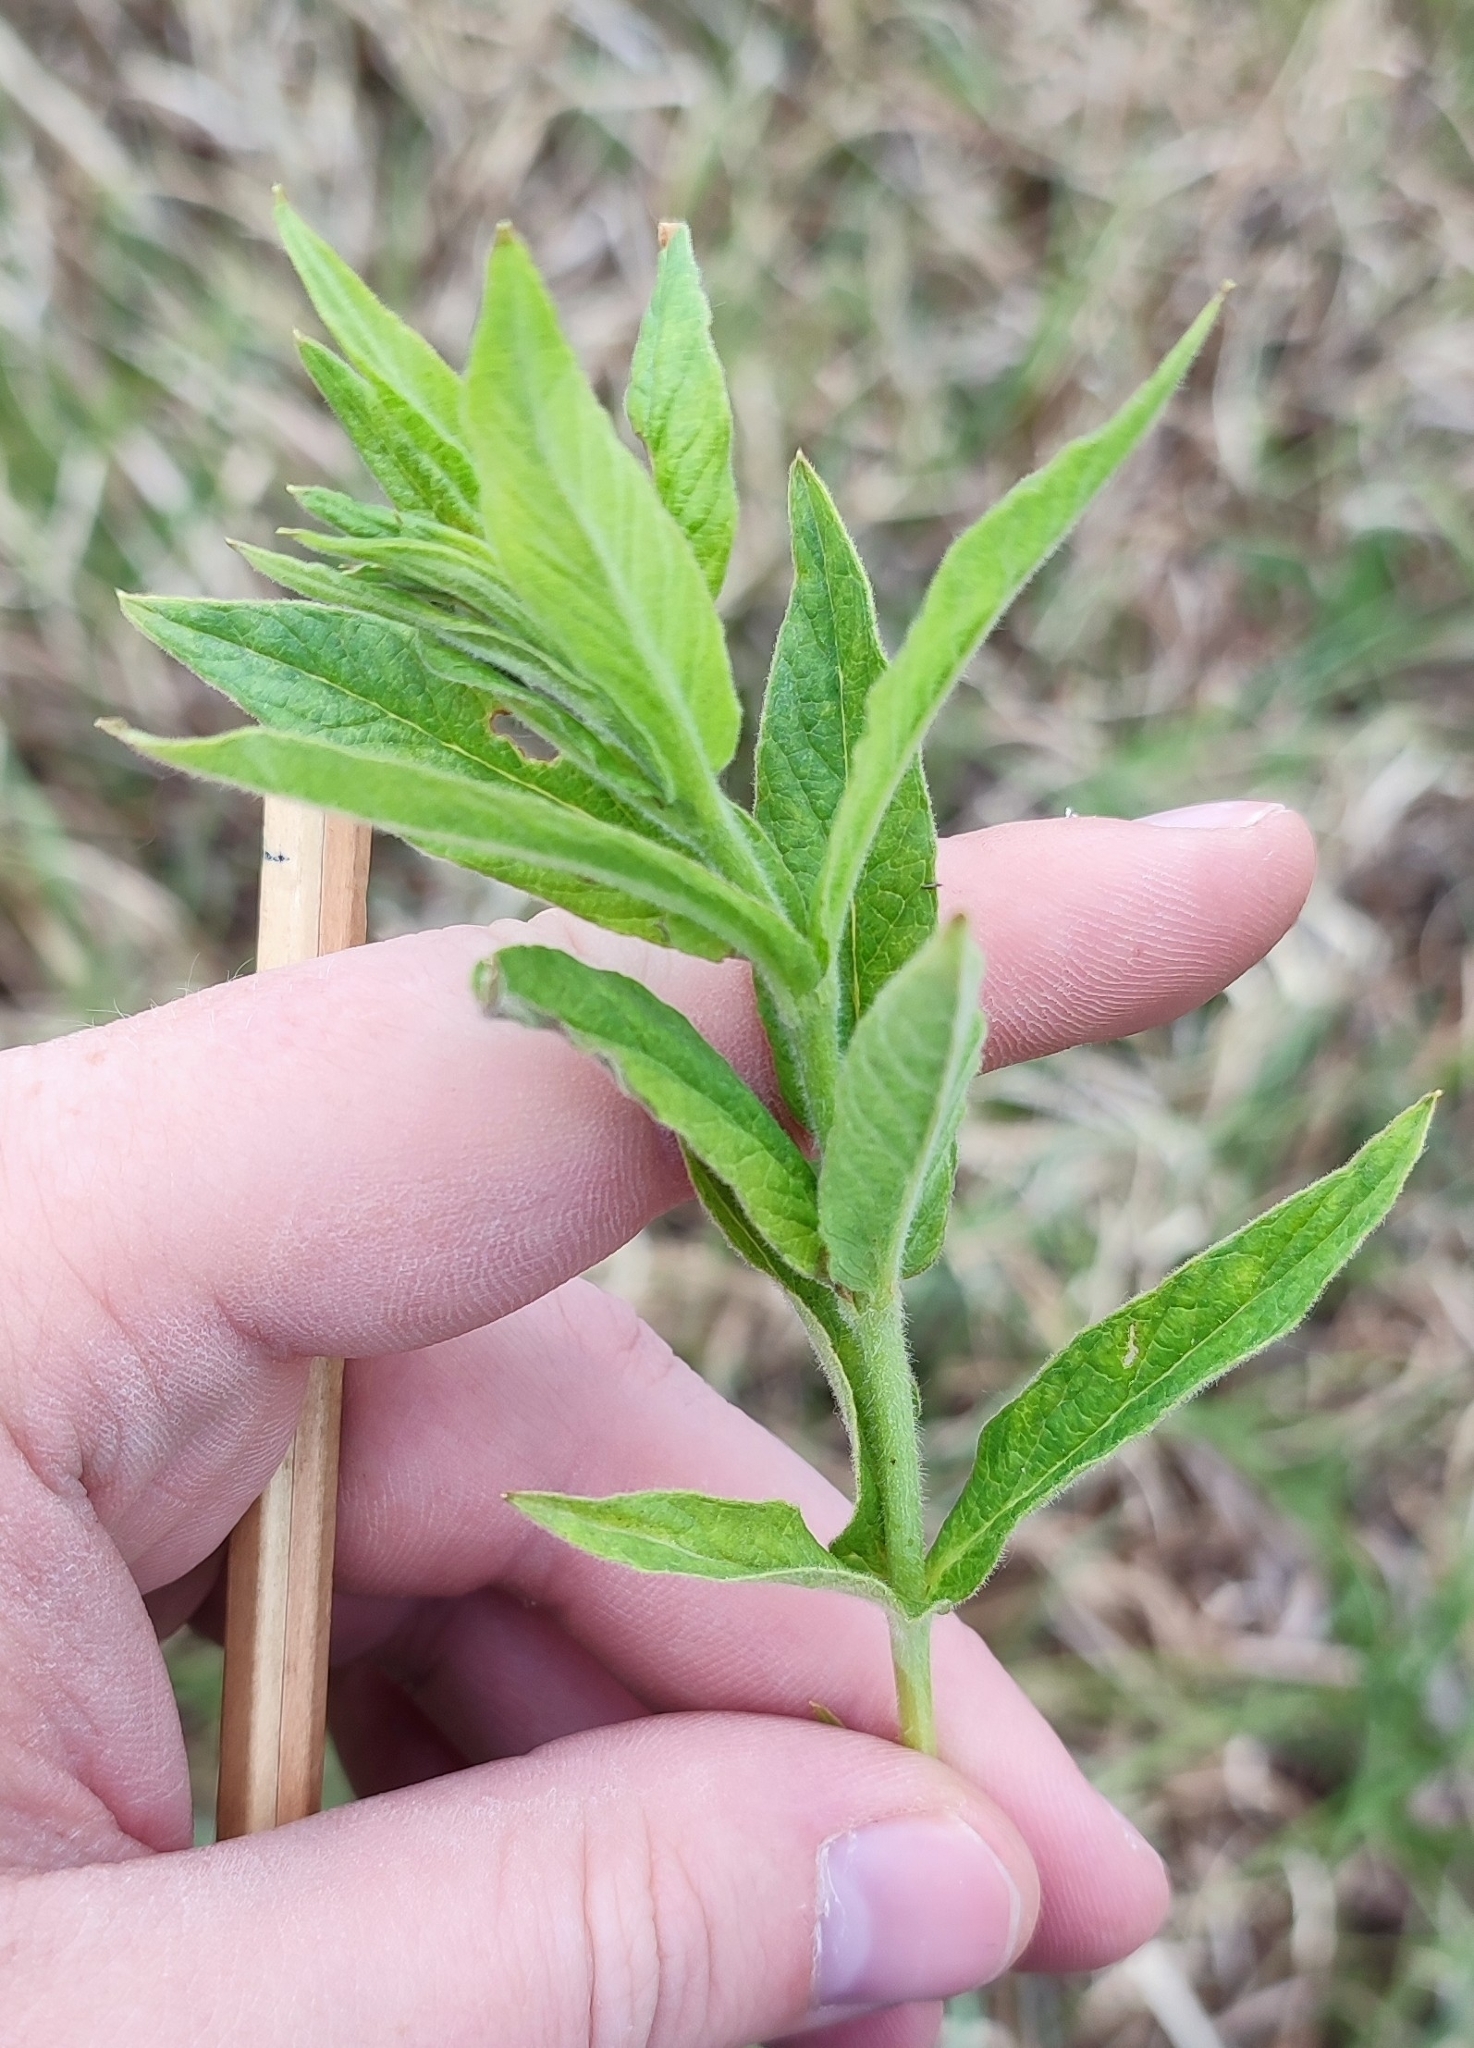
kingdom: Plantae
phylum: Tracheophyta
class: Magnoliopsida
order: Ericales
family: Primulaceae
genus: Lysimachia
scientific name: Lysimachia vulgaris
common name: Yellow loosestrife
